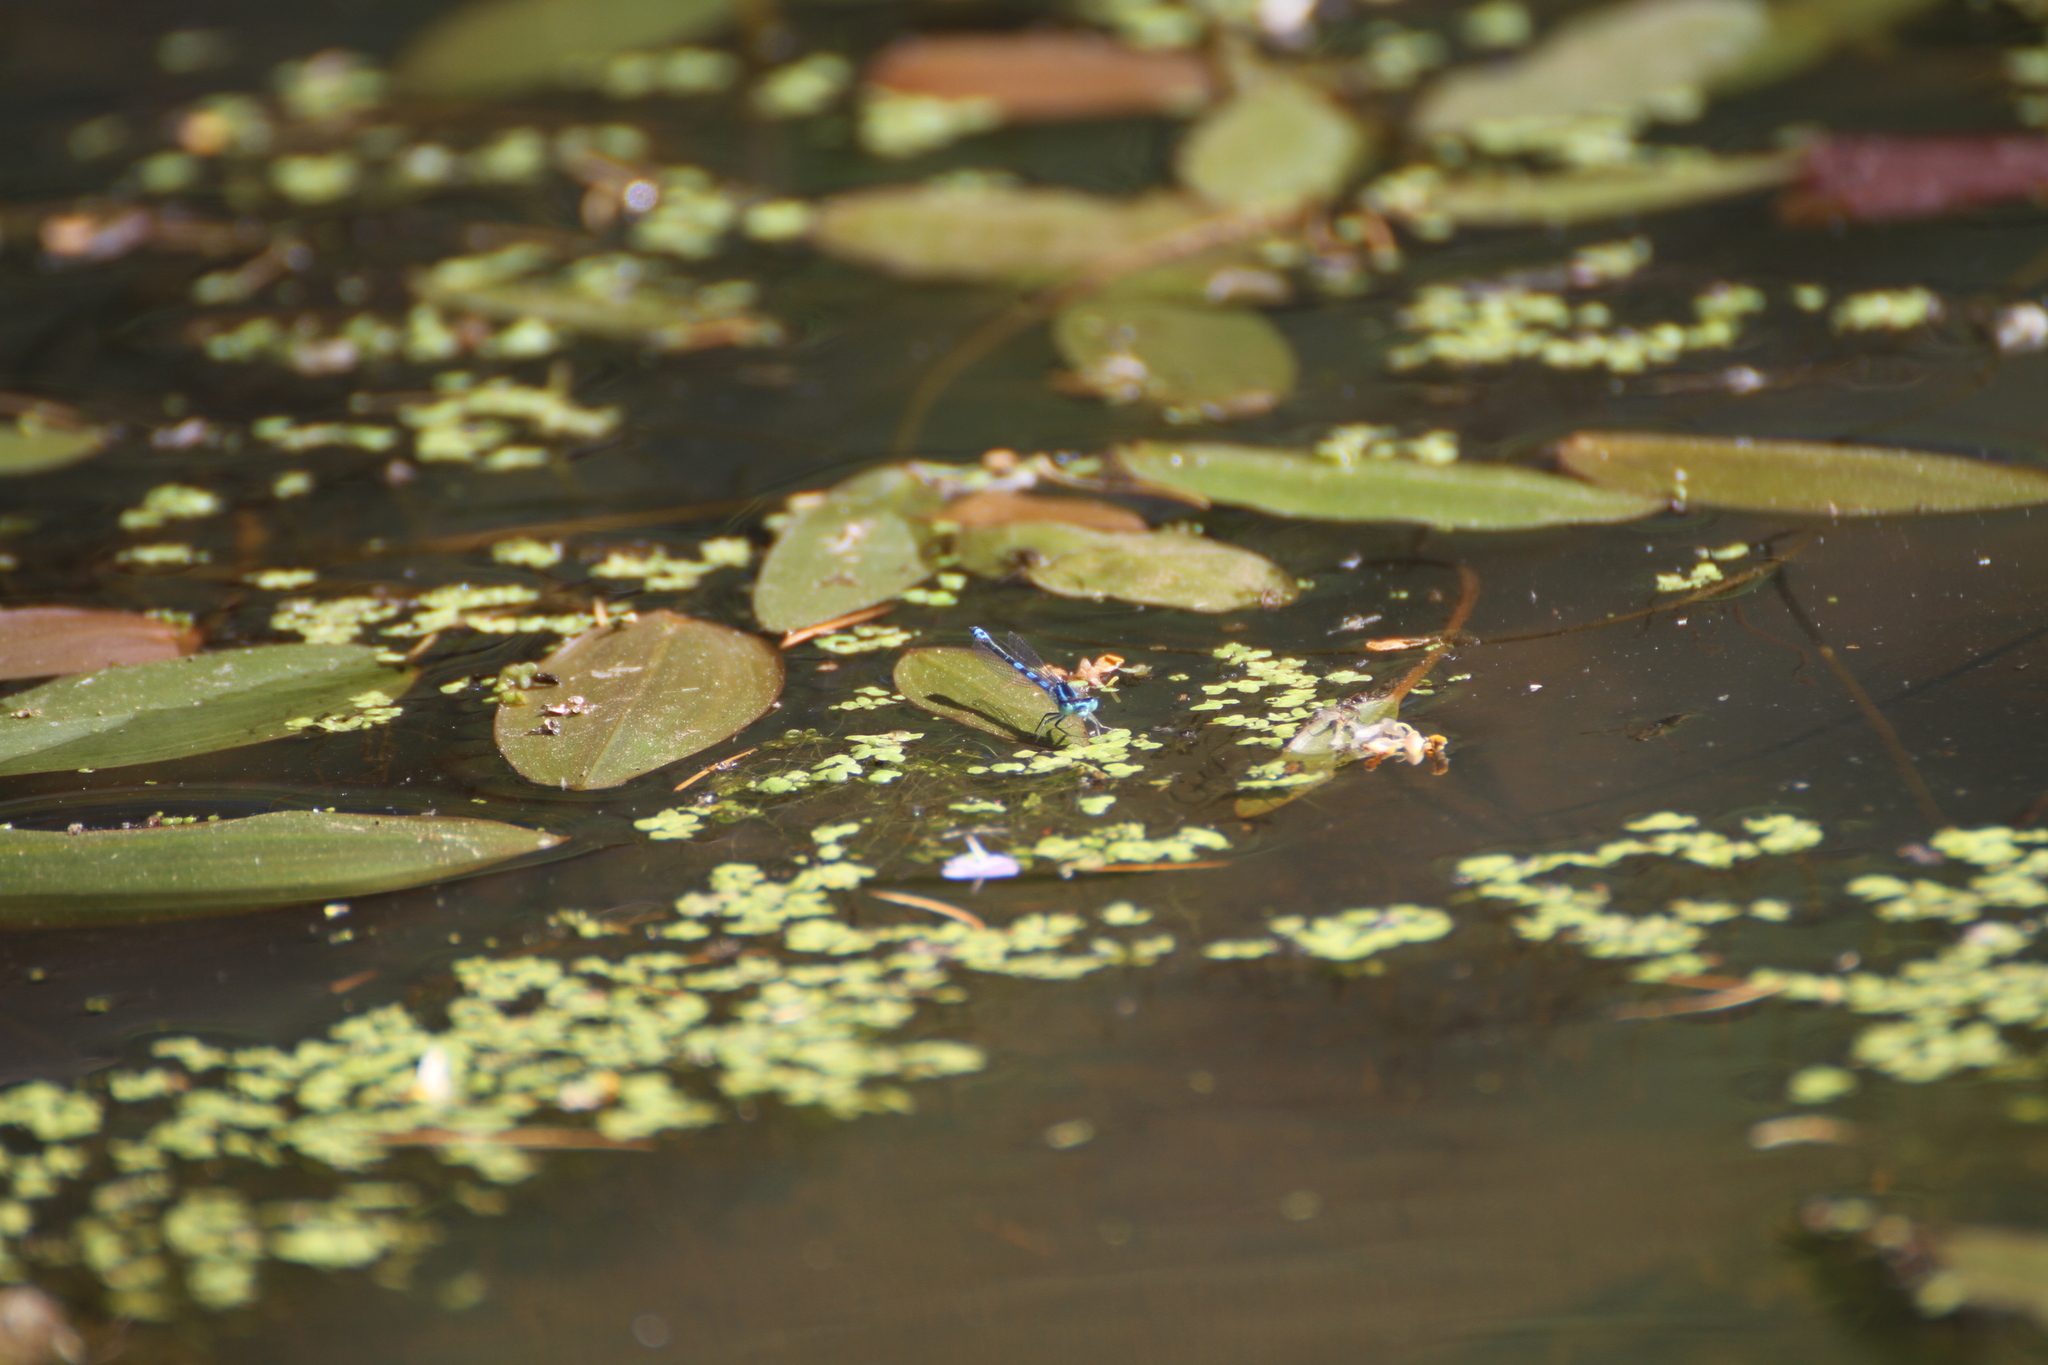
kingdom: Animalia
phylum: Arthropoda
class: Insecta
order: Odonata
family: Coenagrionidae
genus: Coenagrion
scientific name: Coenagrion scitulum
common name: Dainty bluet
